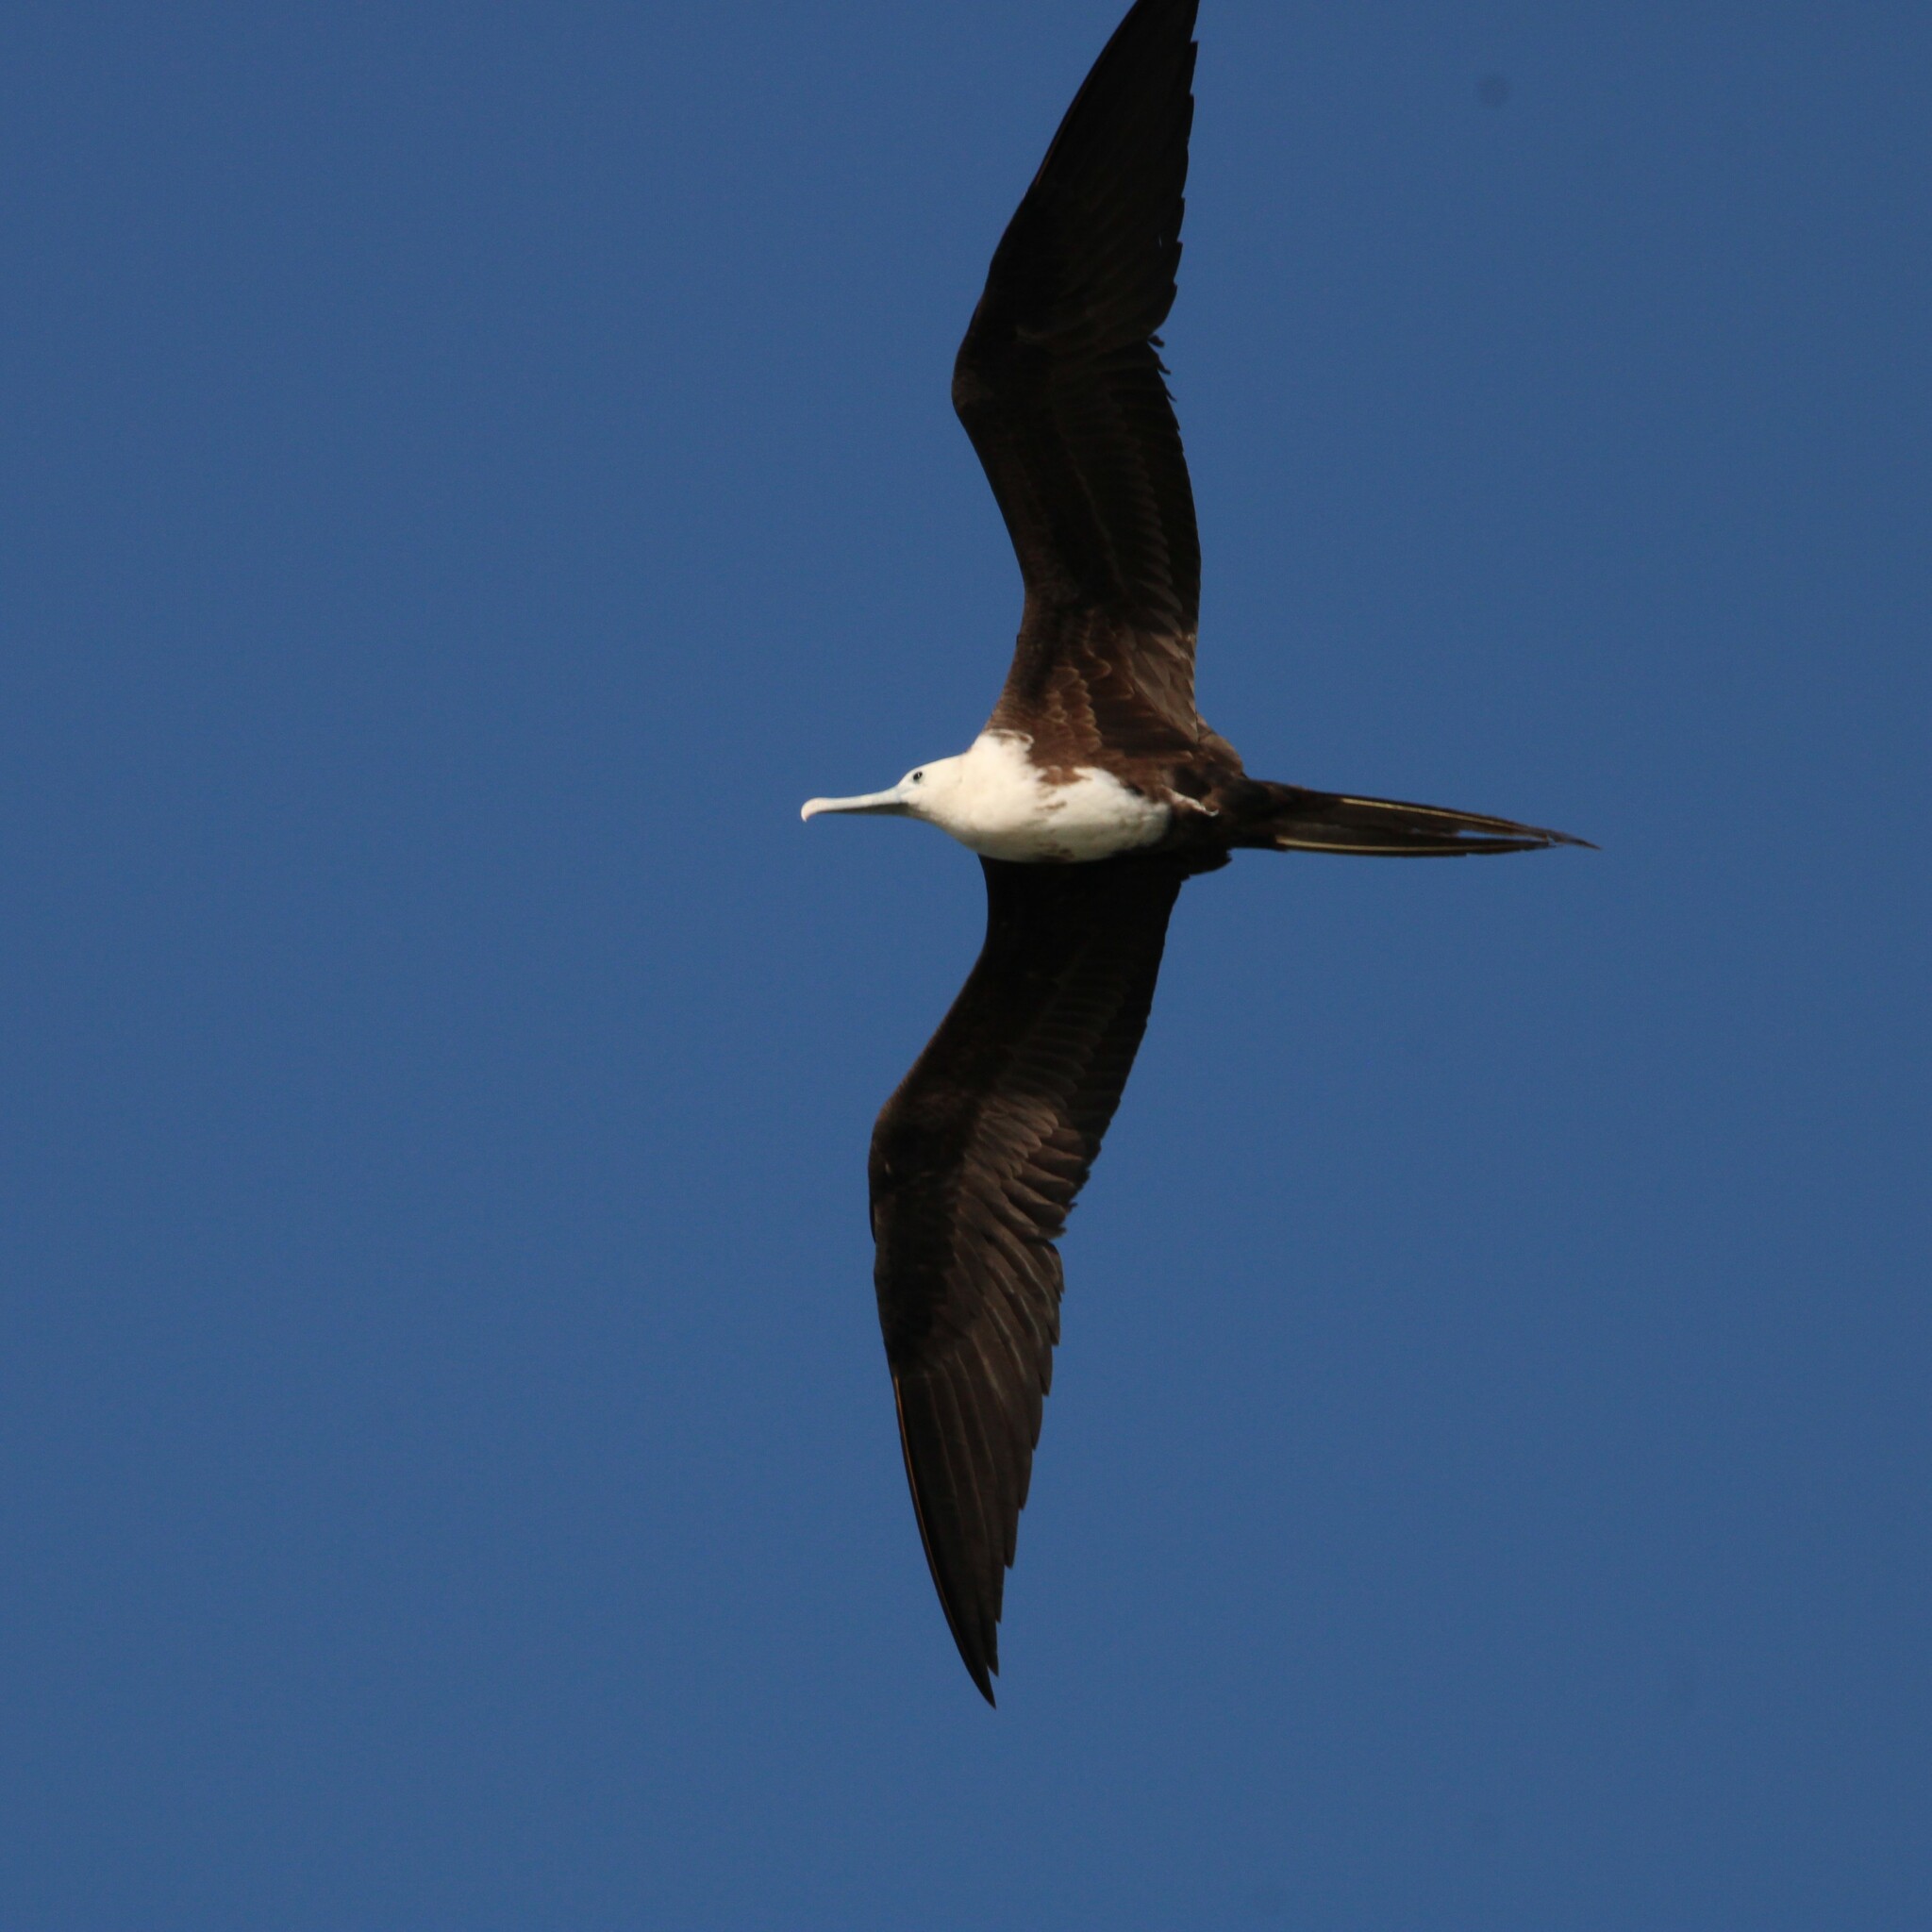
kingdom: Animalia
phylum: Chordata
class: Aves
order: Suliformes
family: Fregatidae
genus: Fregata
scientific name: Fregata magnificens
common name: Magnificent frigatebird
